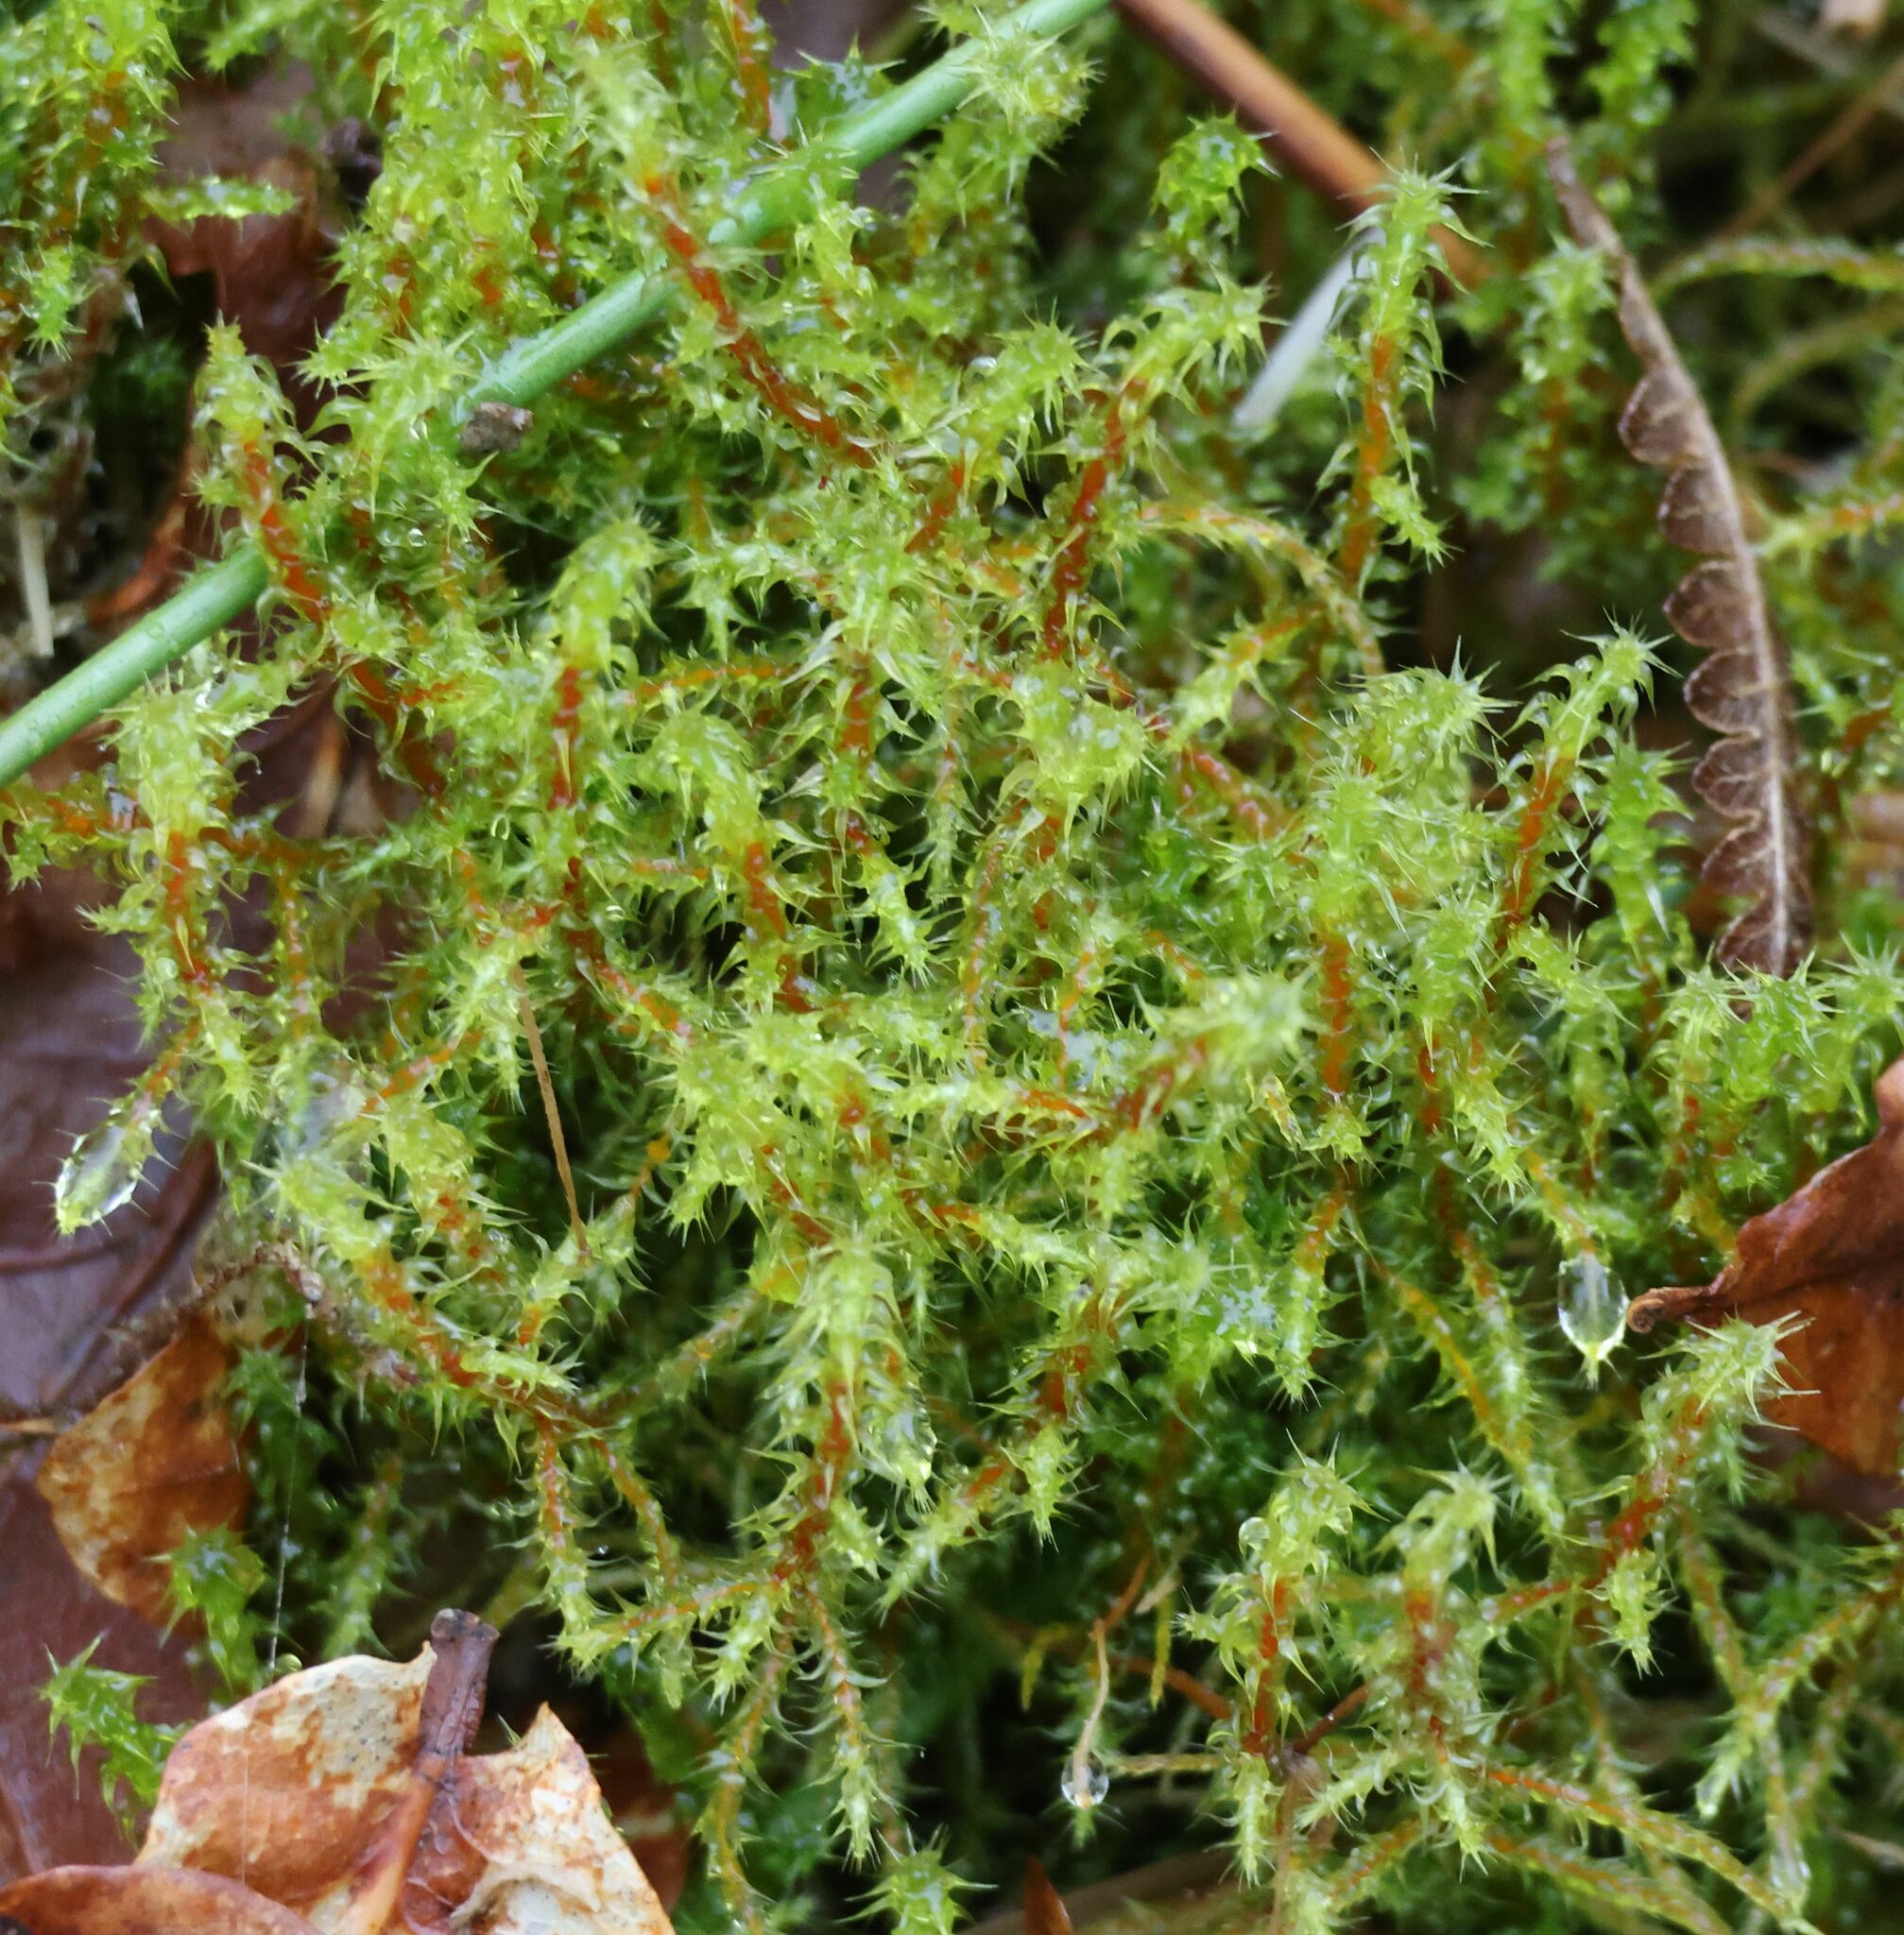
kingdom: Plantae
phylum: Bryophyta
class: Bryopsida
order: Hypnales
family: Hylocomiaceae
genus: Rhytidiadelphus
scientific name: Rhytidiadelphus squarrosus
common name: Springy turf-moss
